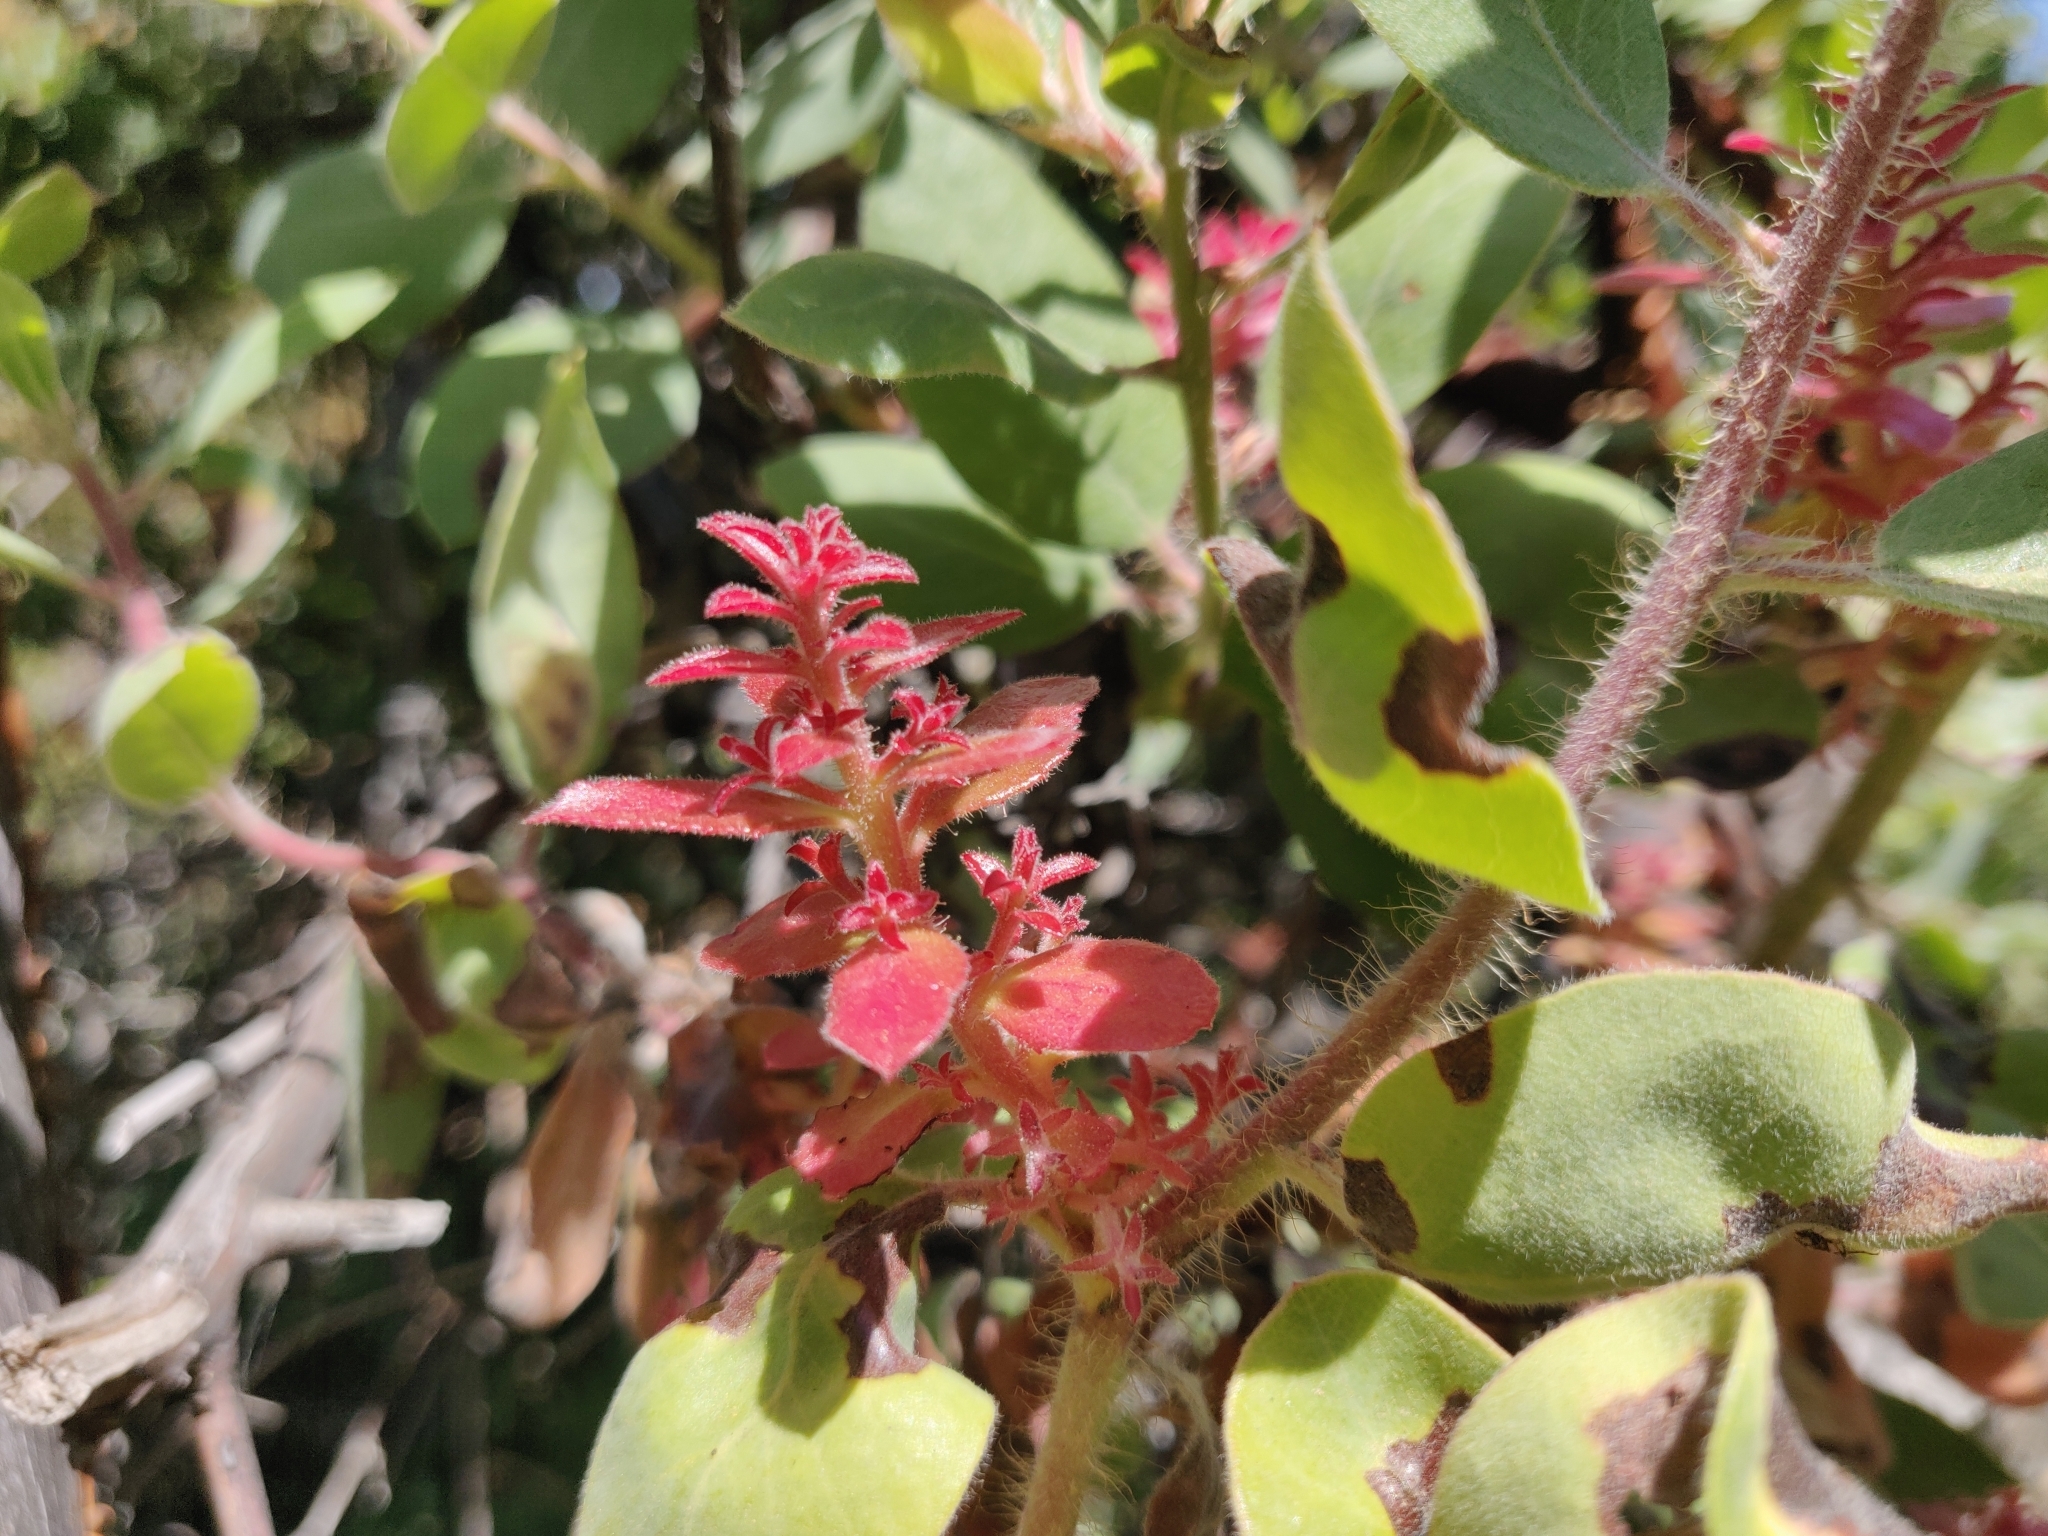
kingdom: Fungi
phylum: Basidiomycota
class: Exobasidiomycetes
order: Exobasidiales
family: Exobasidiaceae
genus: Exobasidium
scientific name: Exobasidium arctostaphyli
